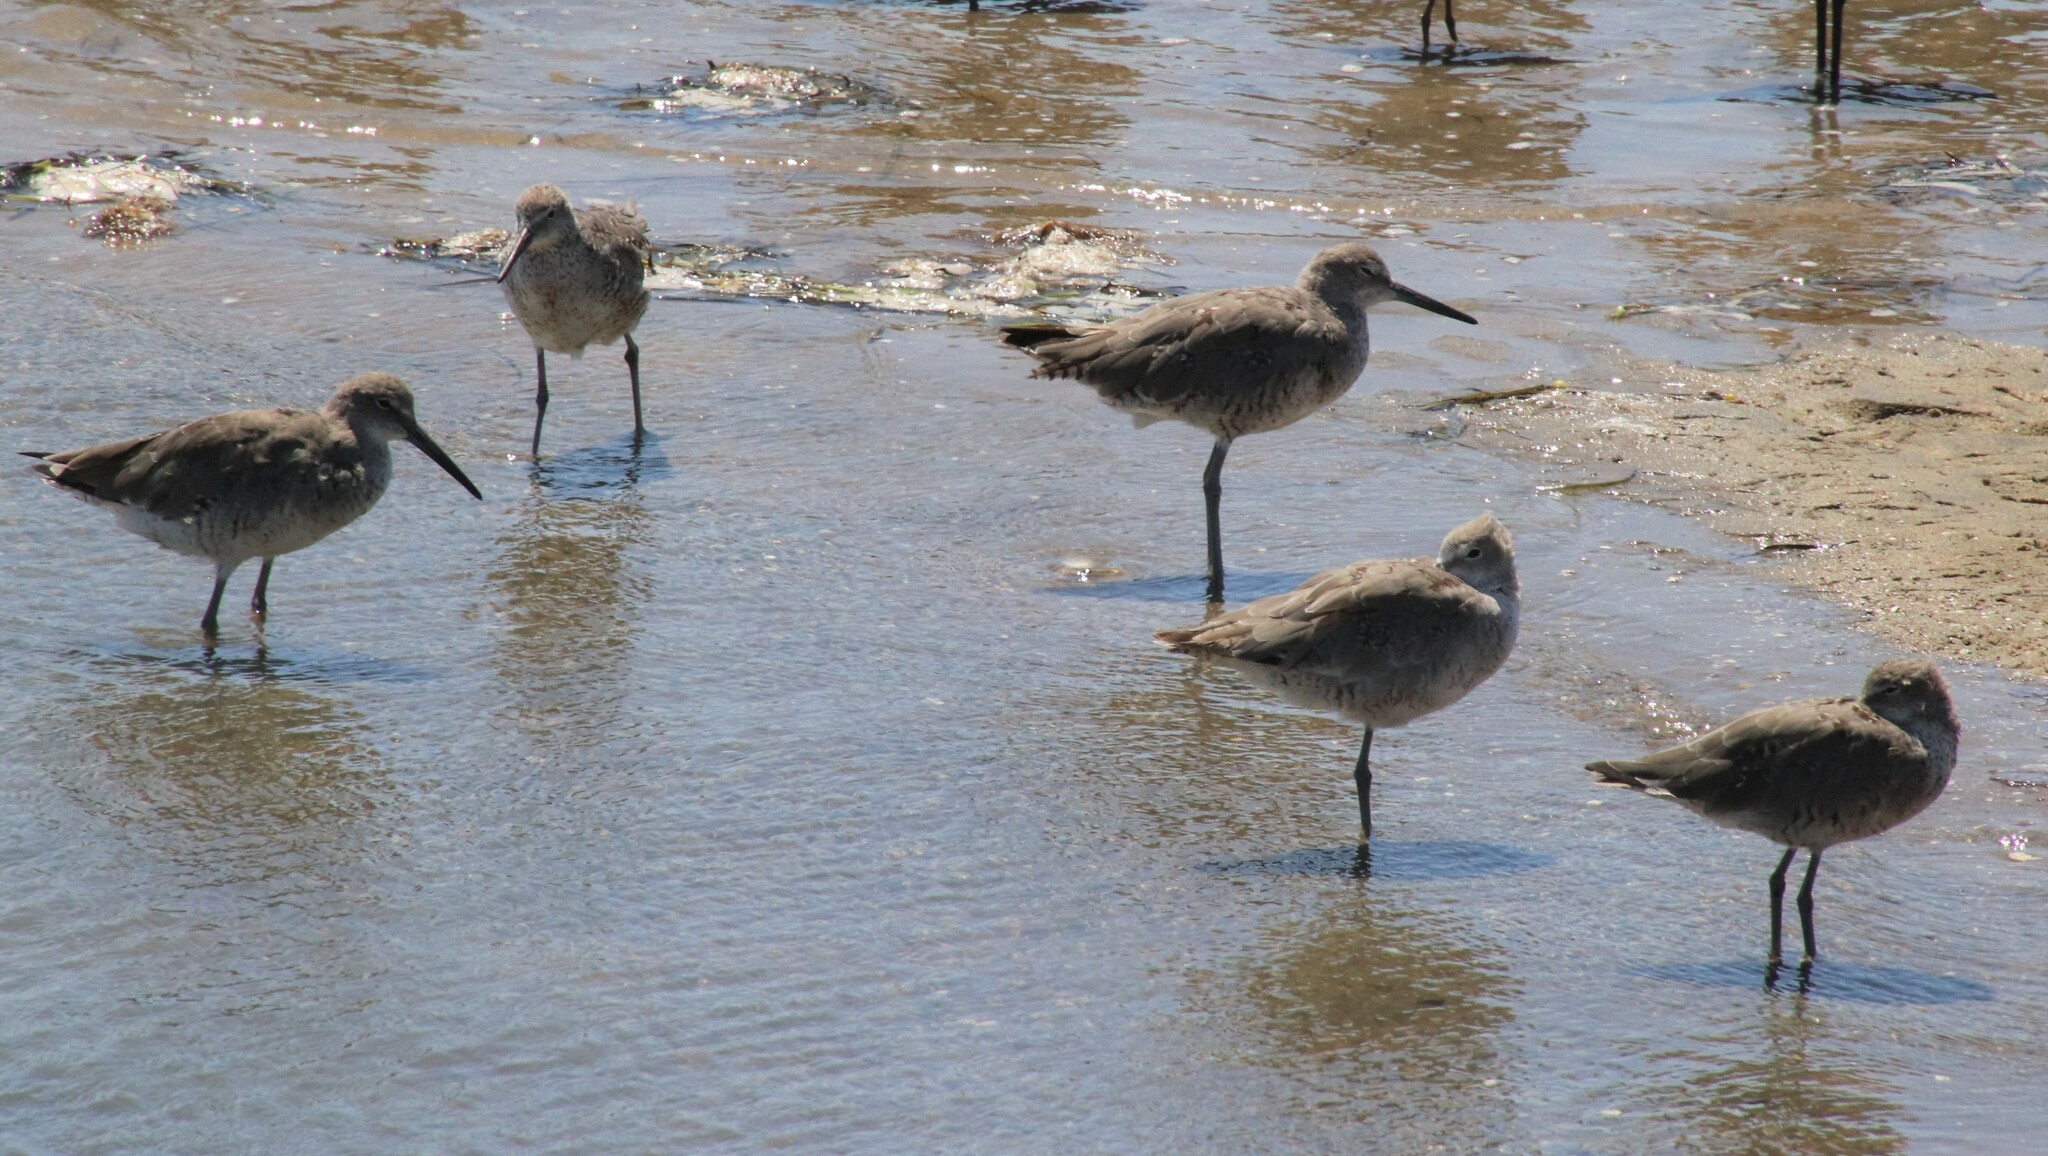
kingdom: Animalia
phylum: Chordata
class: Aves
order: Charadriiformes
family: Scolopacidae
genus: Tringa
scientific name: Tringa semipalmata
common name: Willet
